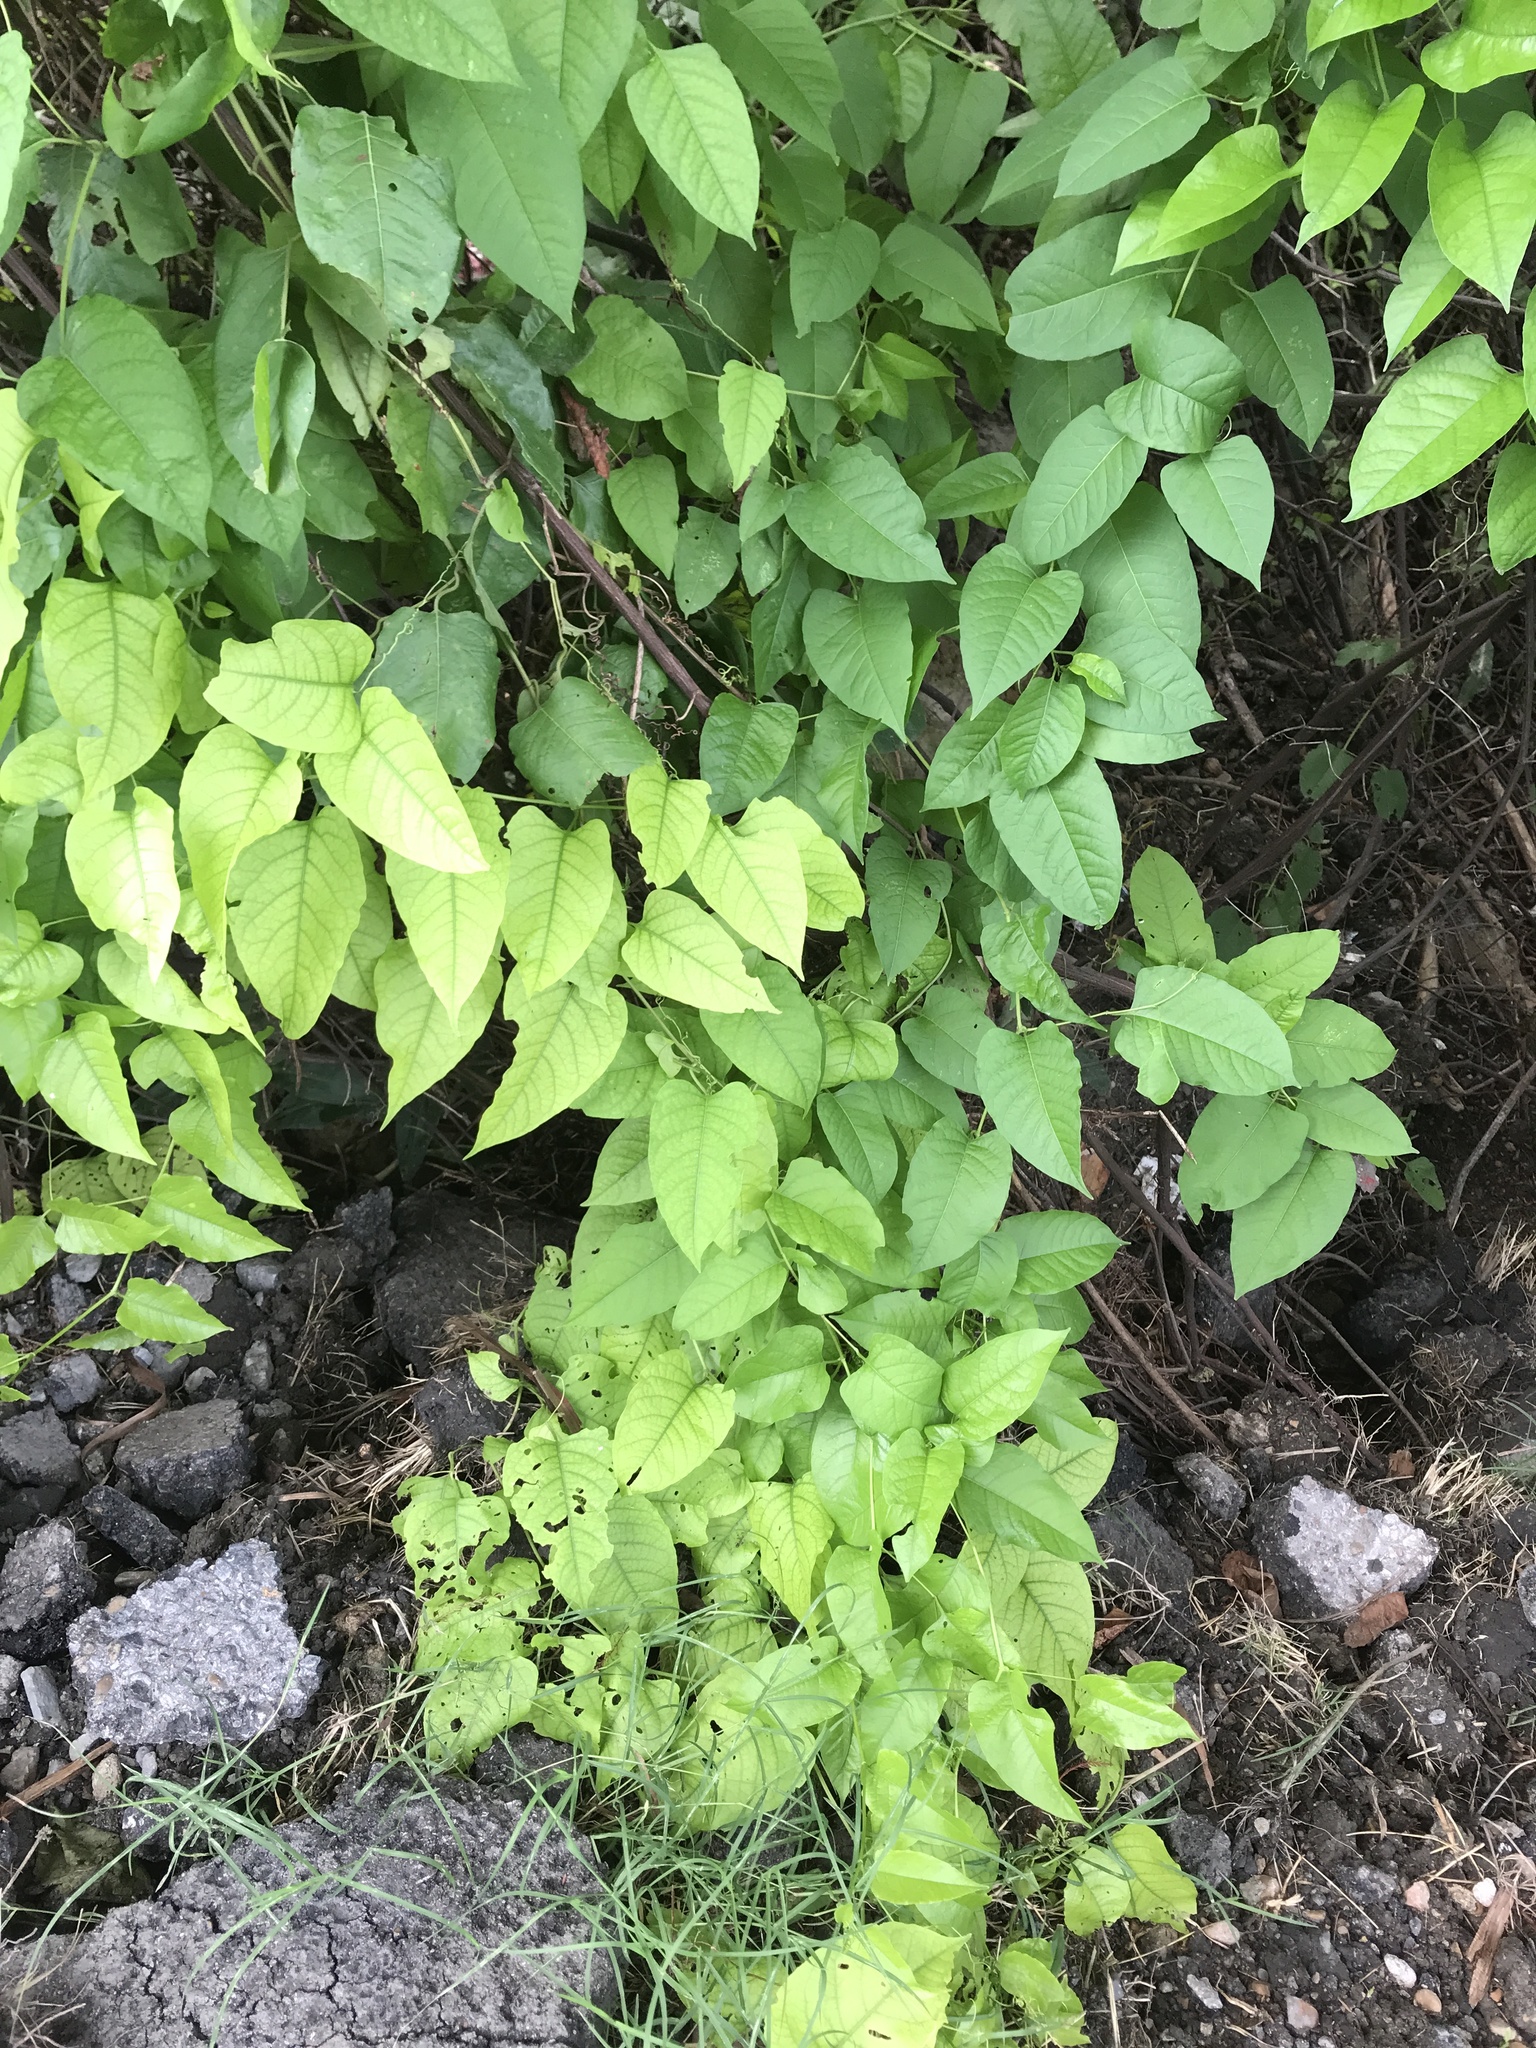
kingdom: Plantae
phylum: Tracheophyta
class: Magnoliopsida
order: Caryophyllales
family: Polygonaceae
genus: Brunnichia
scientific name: Brunnichia ovata
